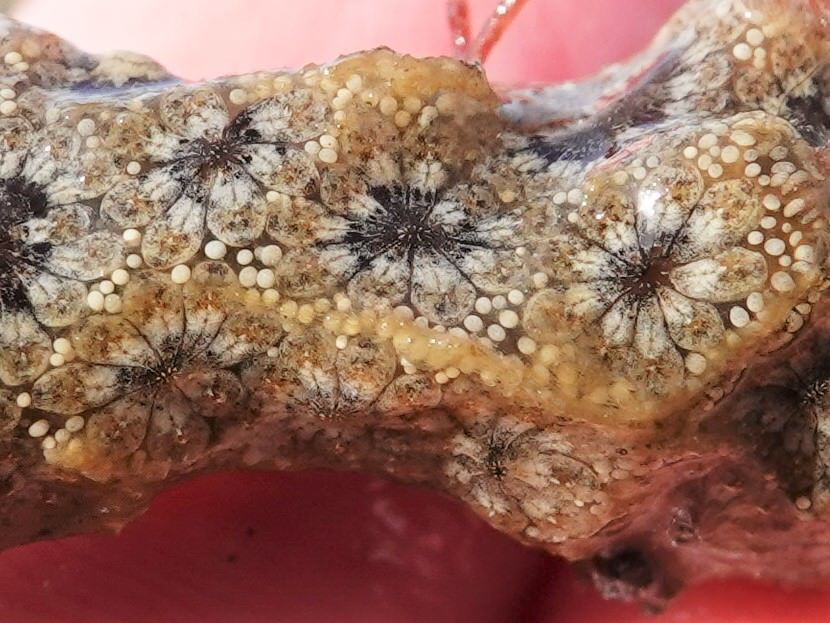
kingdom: Animalia
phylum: Chordata
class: Ascidiacea
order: Stolidobranchia
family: Styelidae
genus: Botryllus
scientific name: Botryllus schlosseri
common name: Golden star tunicate
